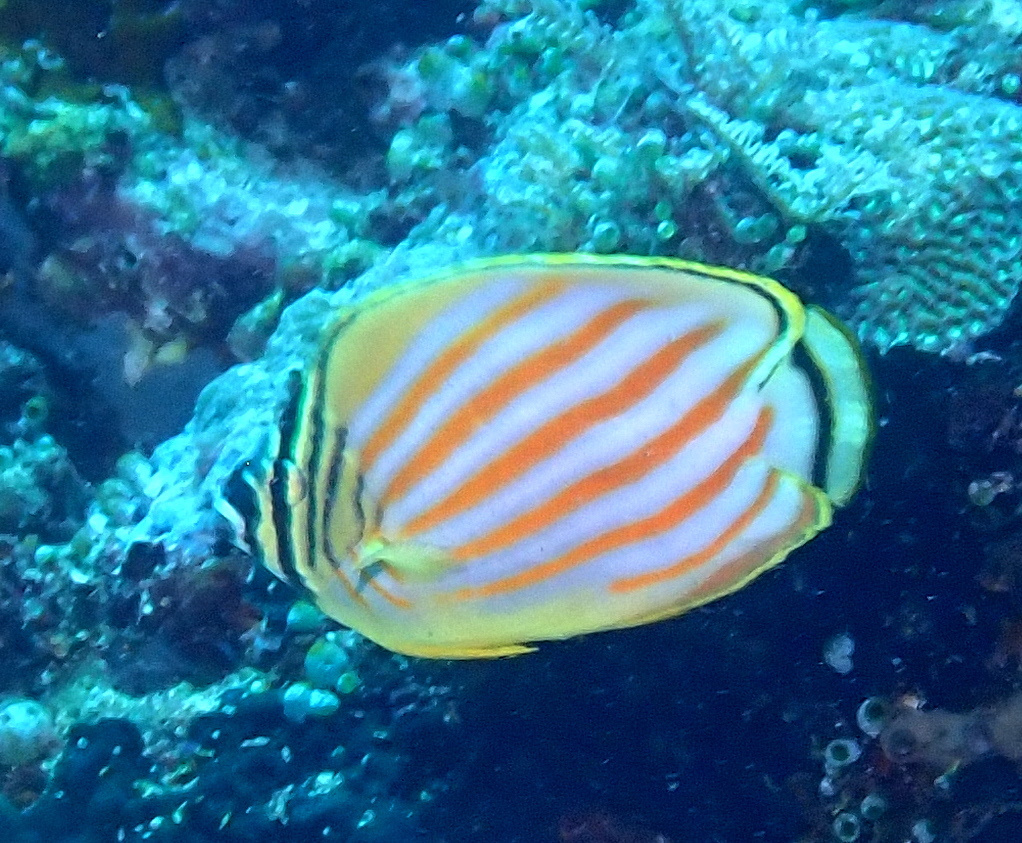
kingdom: Animalia
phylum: Chordata
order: Perciformes
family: Chaetodontidae
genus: Chaetodon
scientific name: Chaetodon ornatissimus
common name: Ornate butterflyfish
